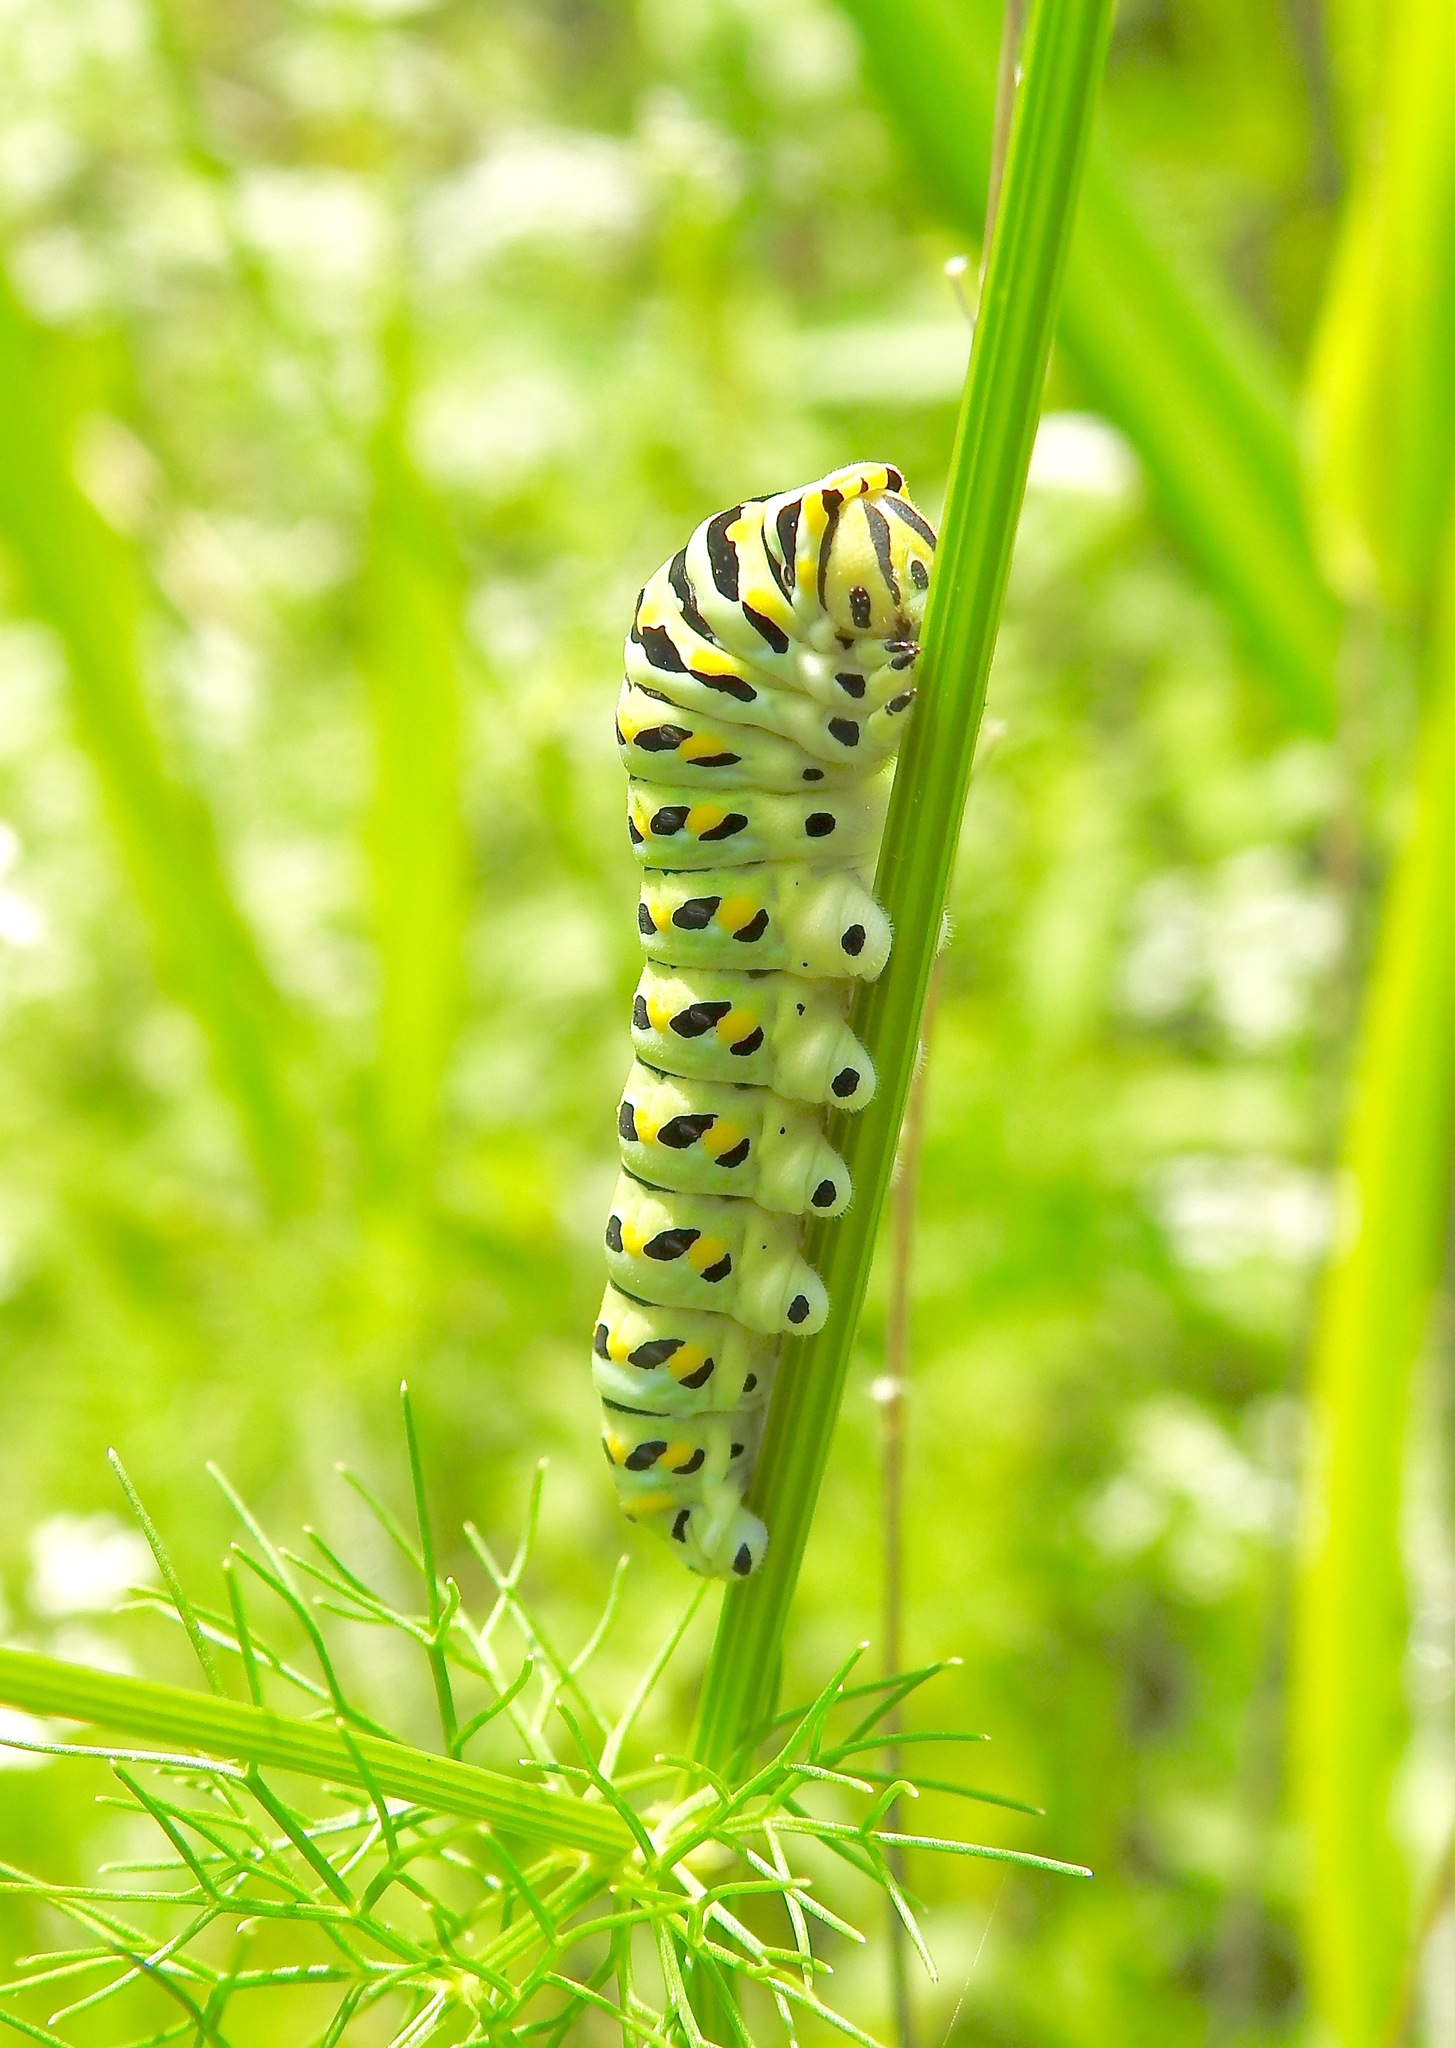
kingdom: Animalia
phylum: Arthropoda
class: Insecta
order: Lepidoptera
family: Papilionidae
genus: Papilio
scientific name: Papilio polyxenes
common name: Black swallowtail
